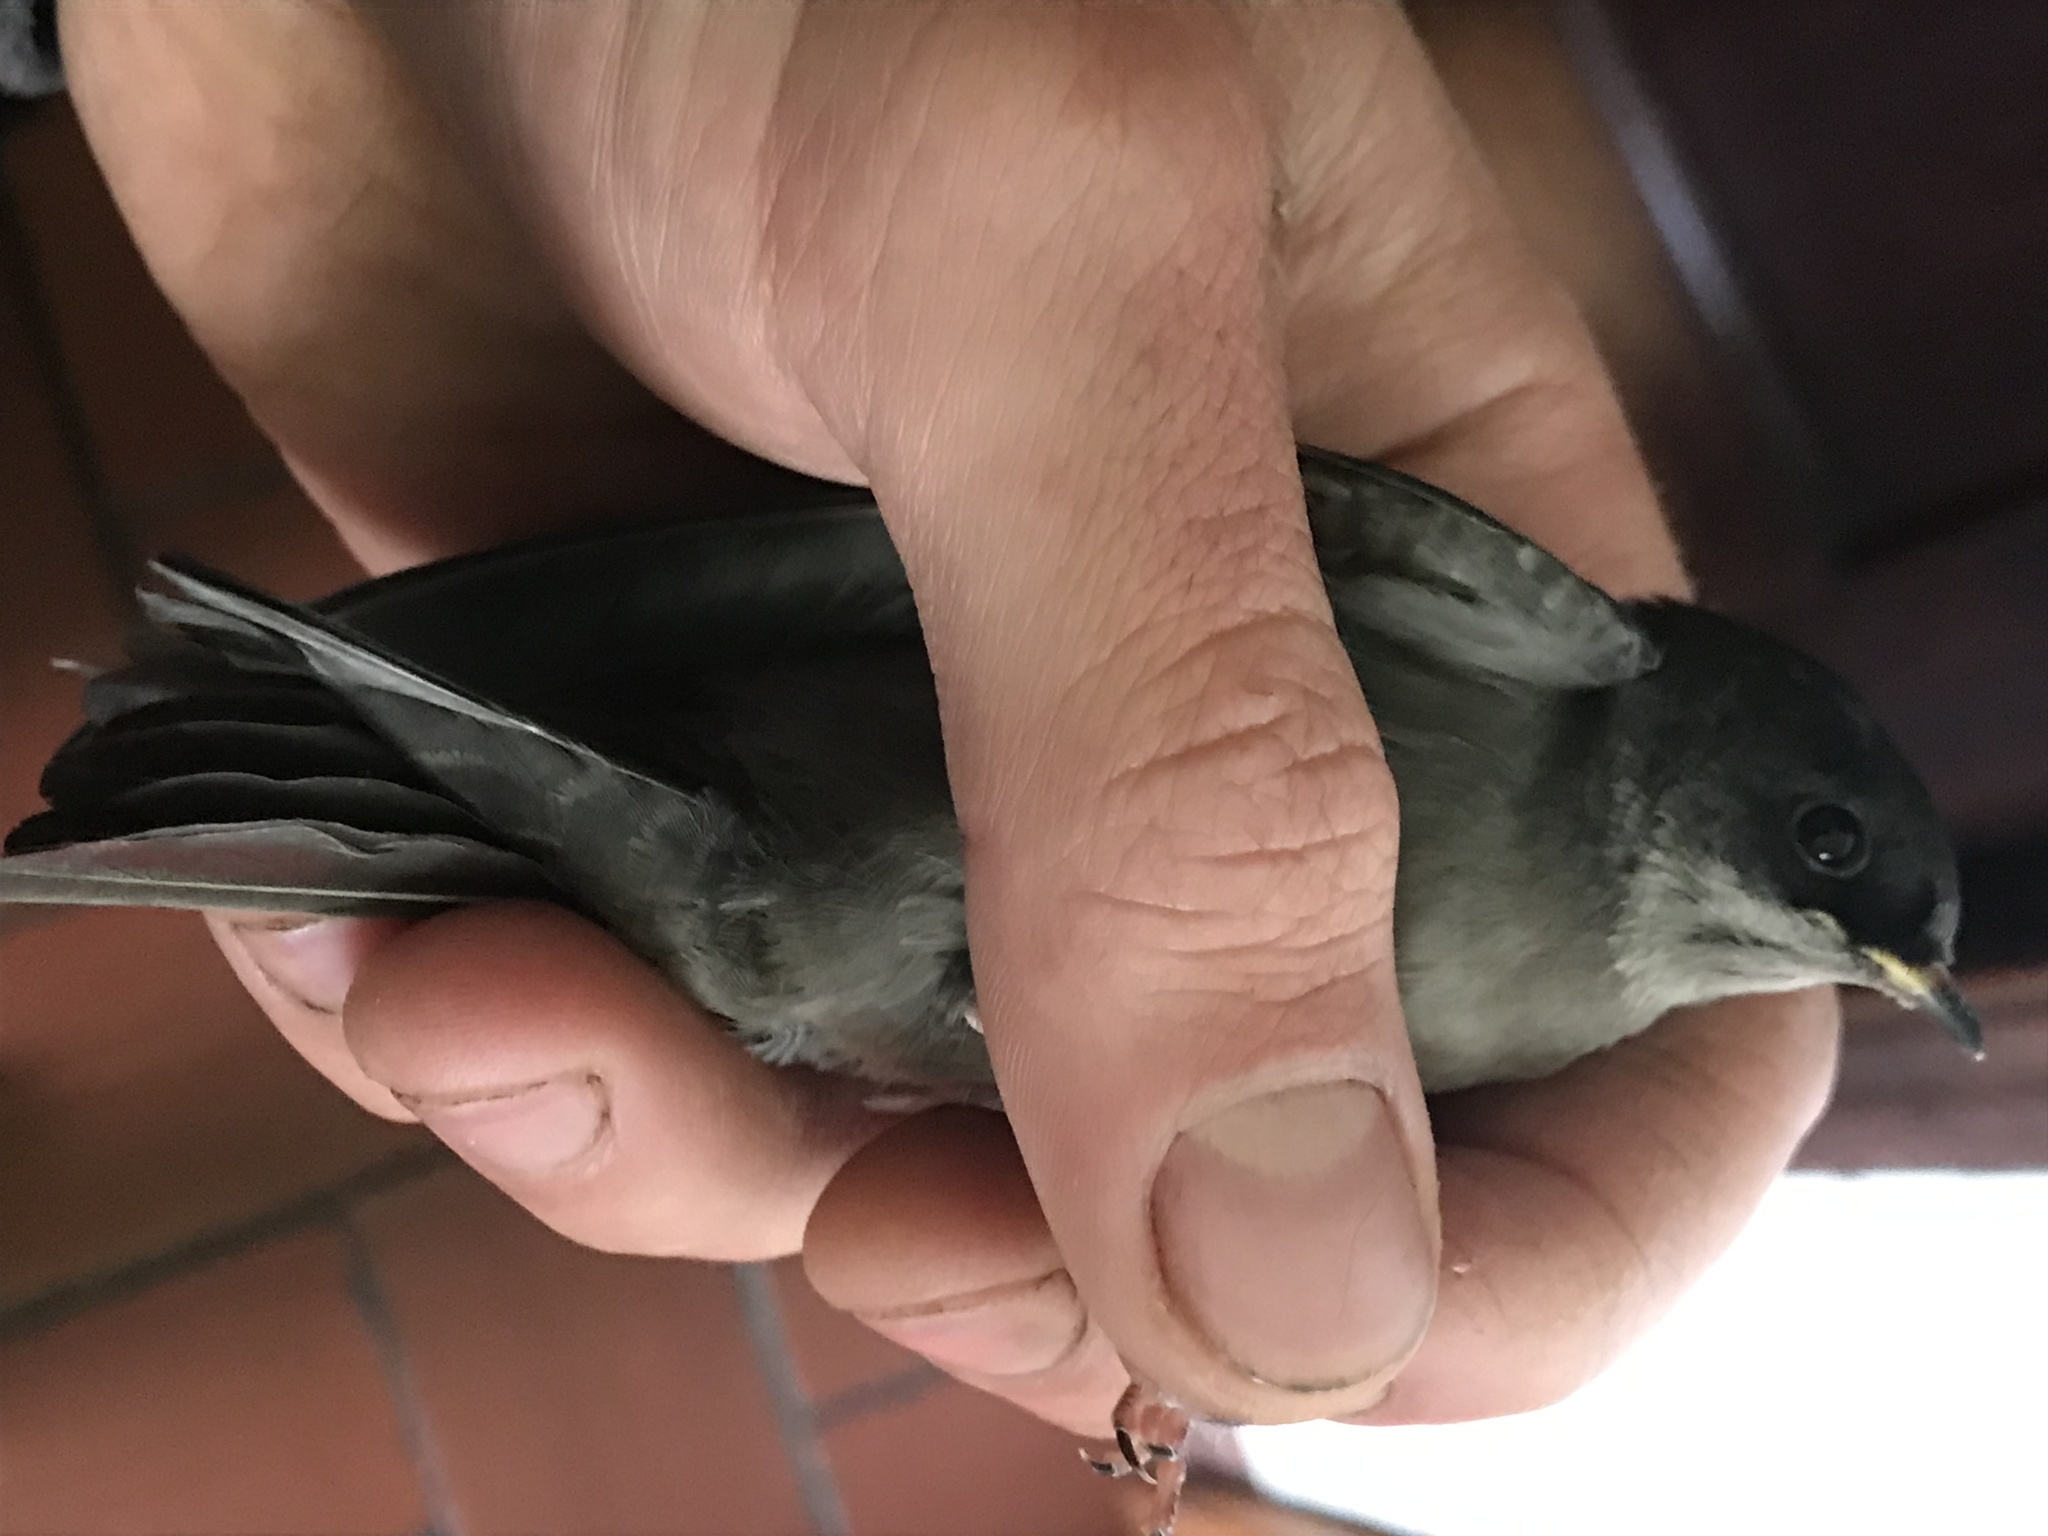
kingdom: Animalia
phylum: Chordata
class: Aves
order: Passeriformes
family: Hirundinidae
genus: Notiochelidon
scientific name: Notiochelidon murina
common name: Brown-bellied swallow
